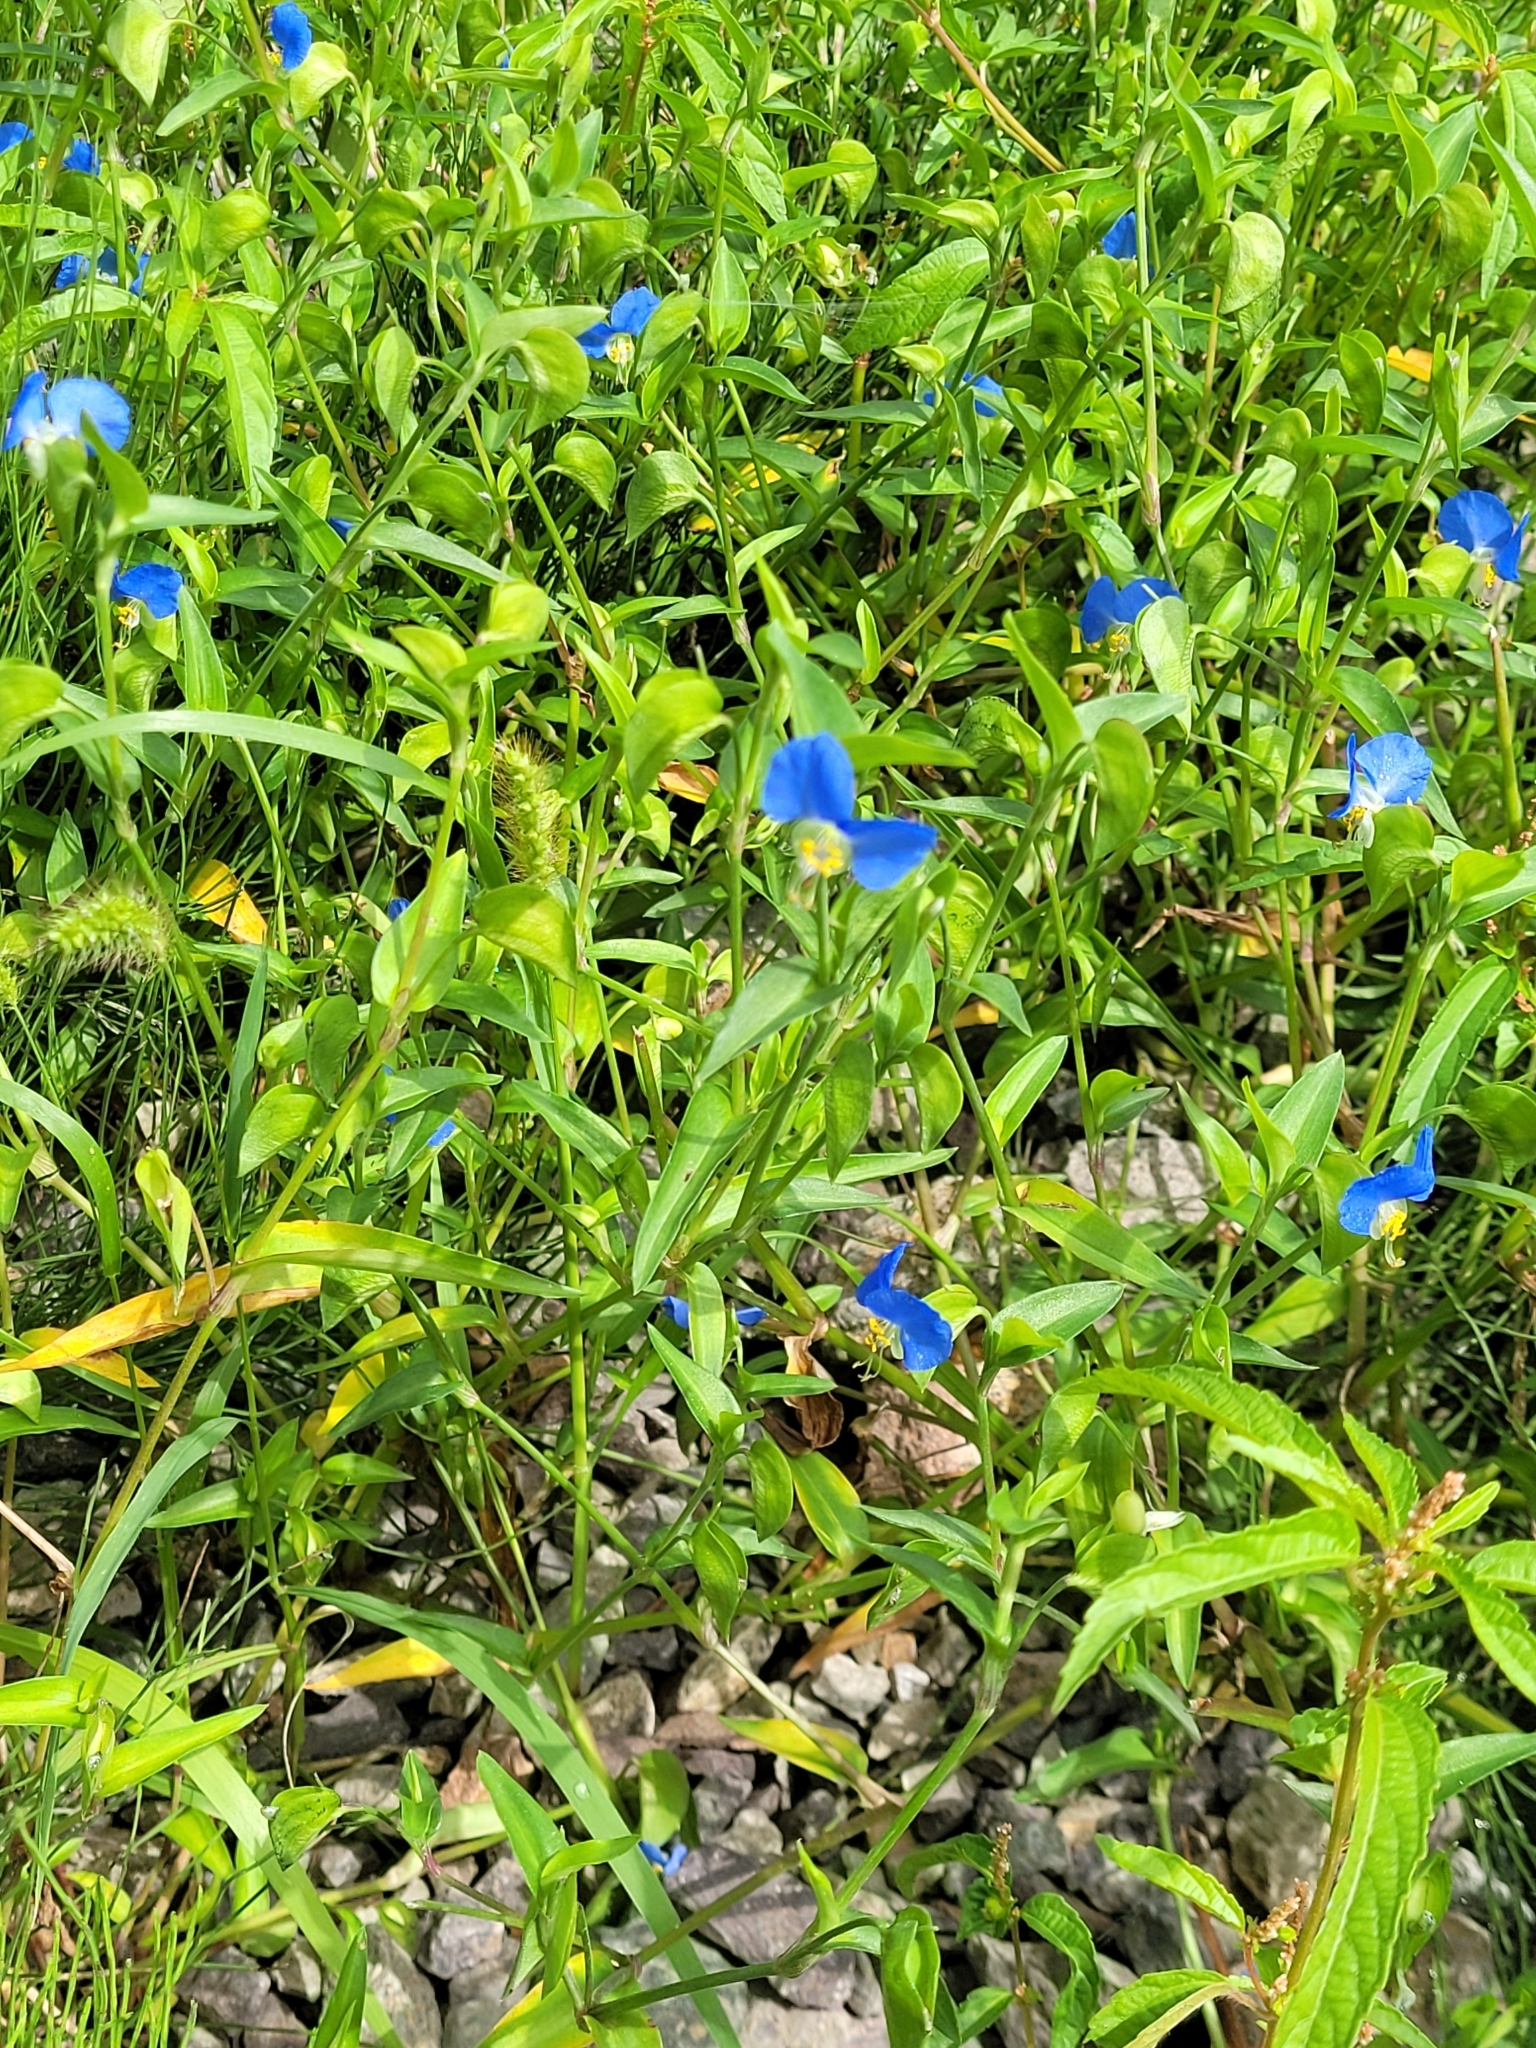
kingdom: Plantae
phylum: Tracheophyta
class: Liliopsida
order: Commelinales
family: Commelinaceae
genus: Commelina
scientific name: Commelina communis
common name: Asiatic dayflower
